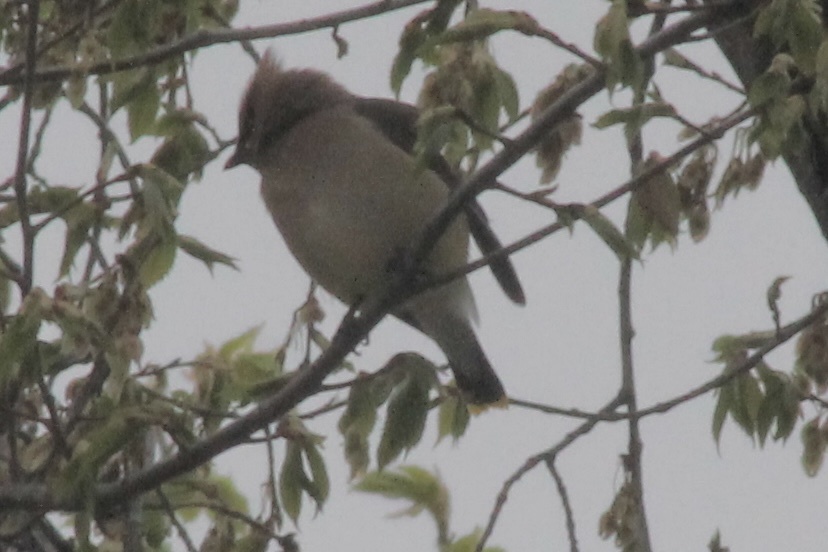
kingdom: Animalia
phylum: Chordata
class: Aves
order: Passeriformes
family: Bombycillidae
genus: Bombycilla
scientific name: Bombycilla cedrorum
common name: Cedar waxwing
